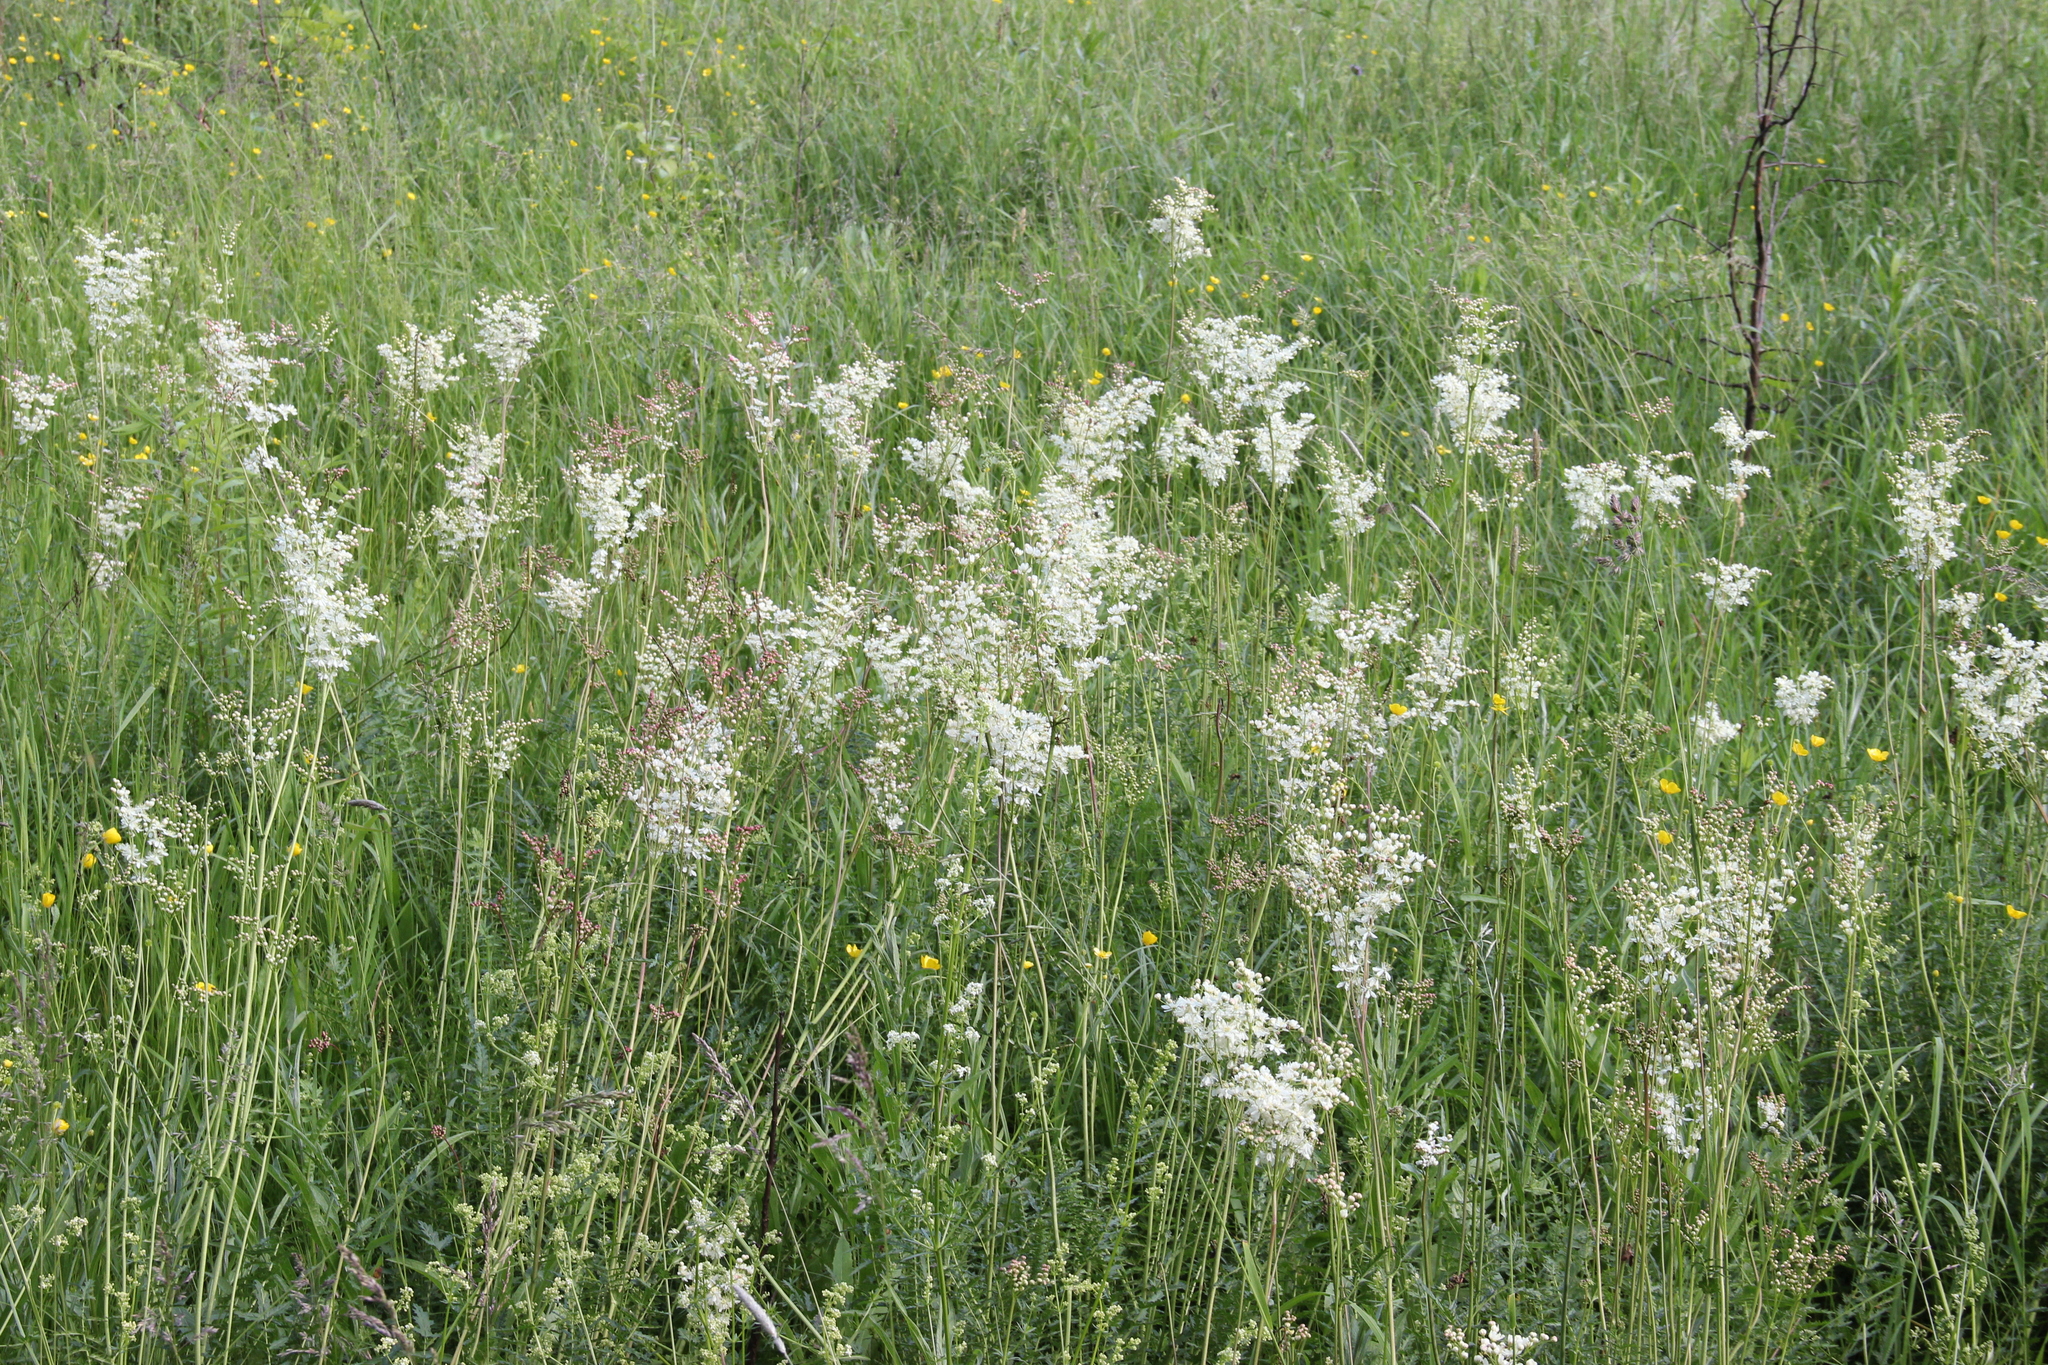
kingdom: Plantae
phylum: Tracheophyta
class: Magnoliopsida
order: Rosales
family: Rosaceae
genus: Filipendula
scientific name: Filipendula vulgaris
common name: Dropwort
